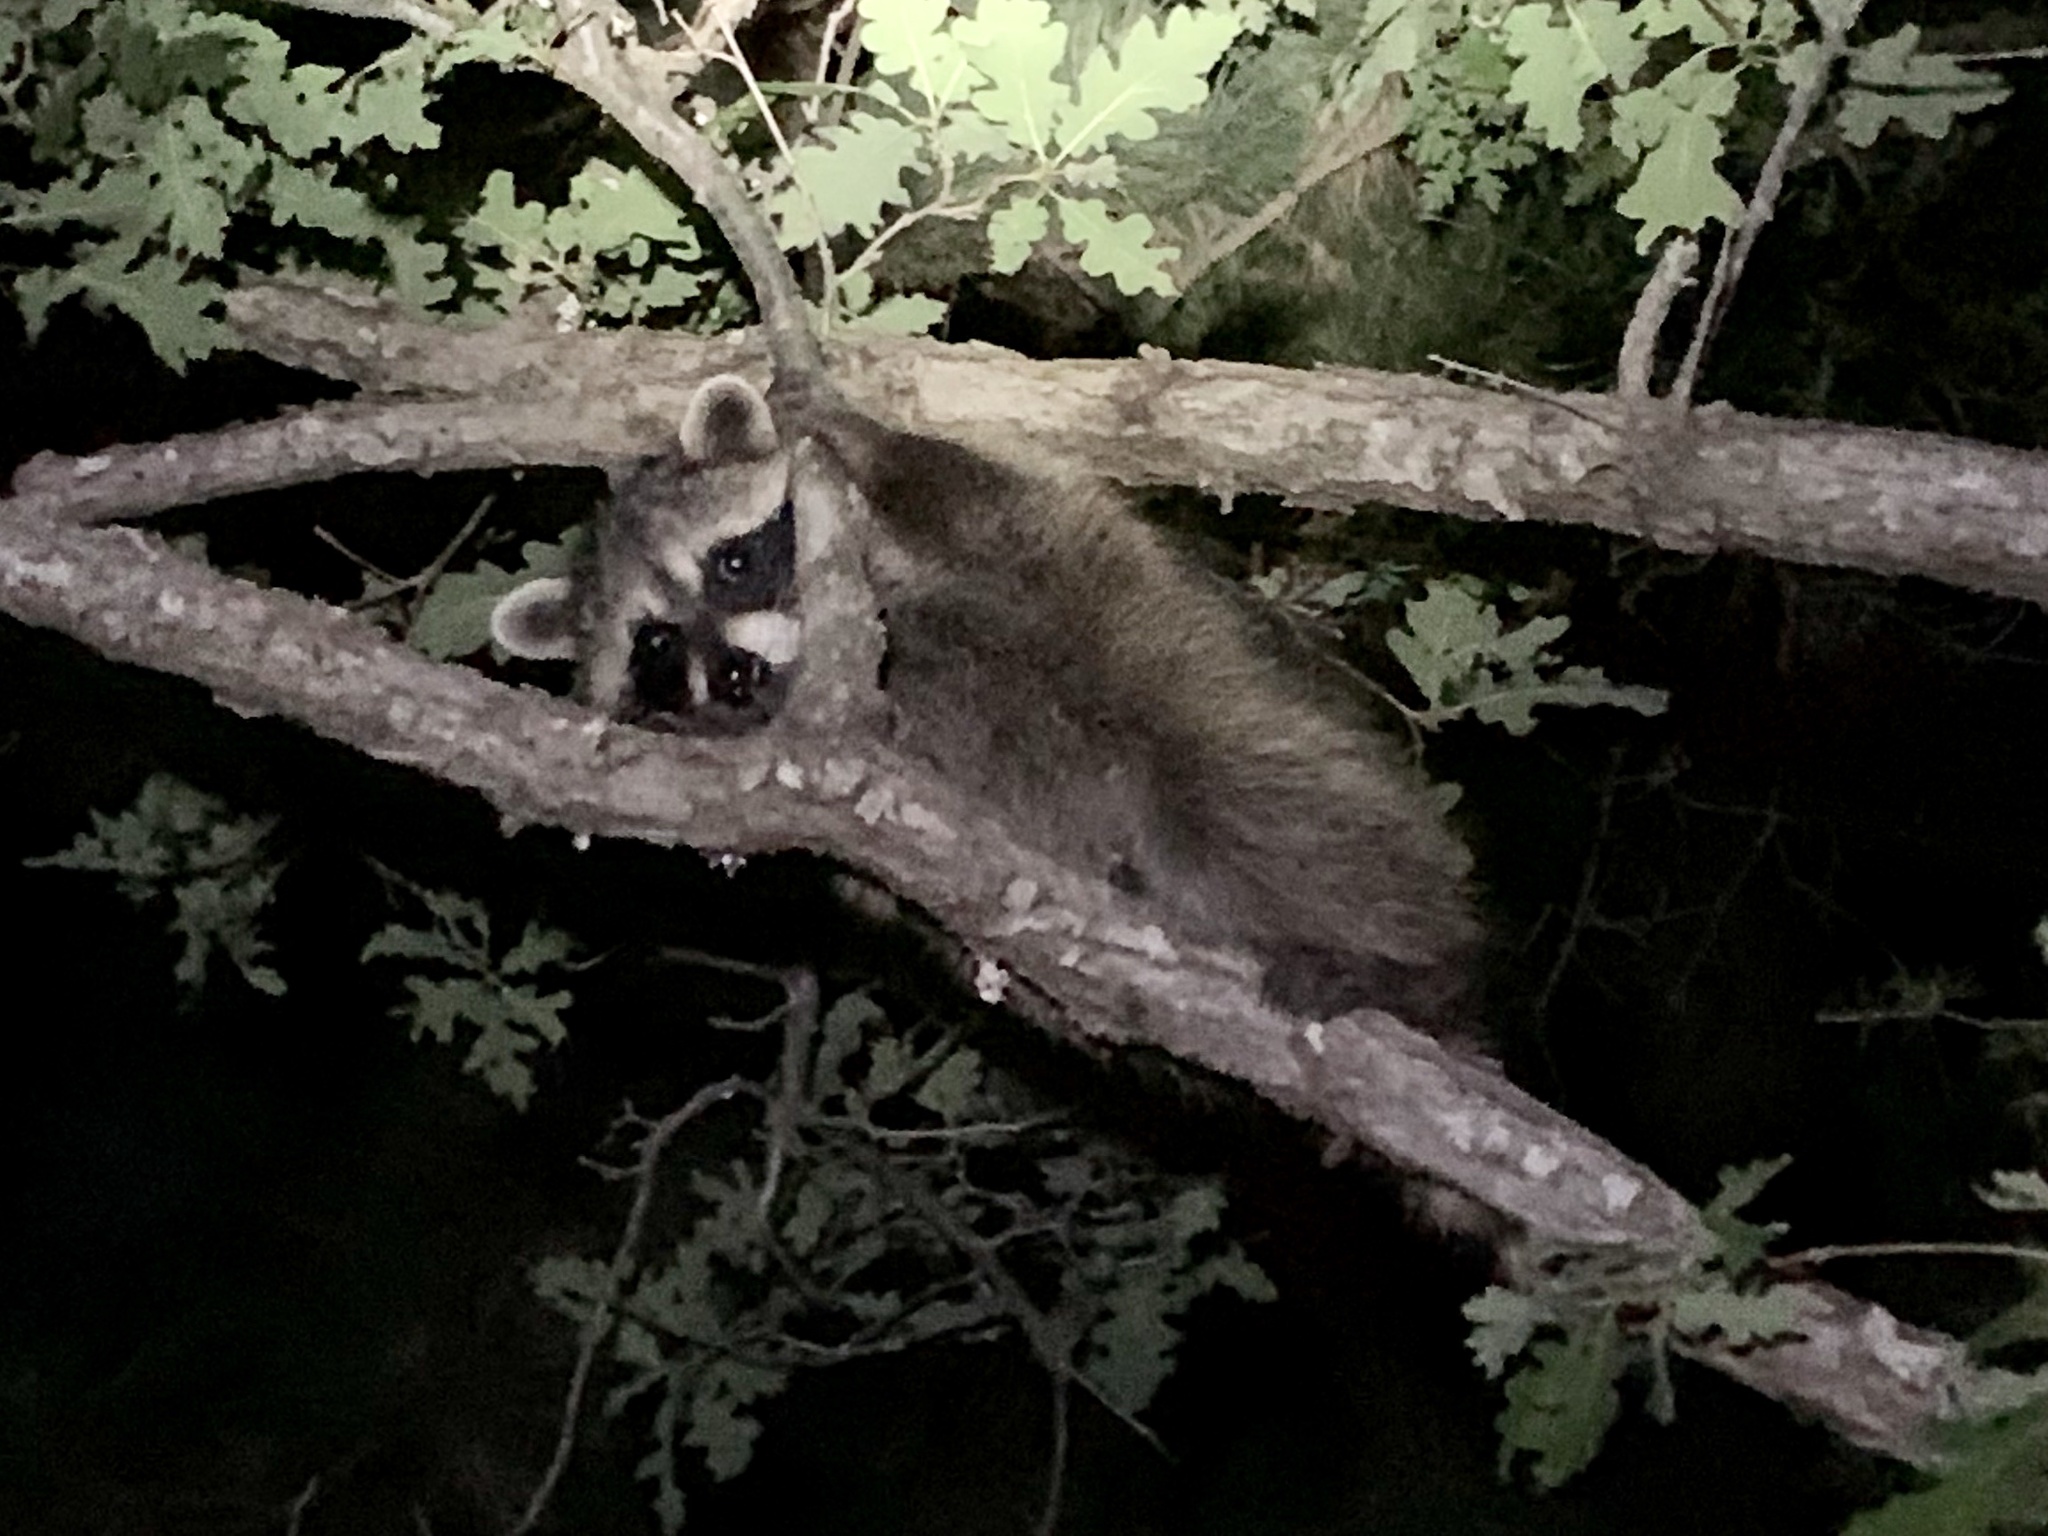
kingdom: Animalia
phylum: Chordata
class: Mammalia
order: Carnivora
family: Procyonidae
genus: Procyon
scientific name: Procyon lotor
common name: Raccoon
